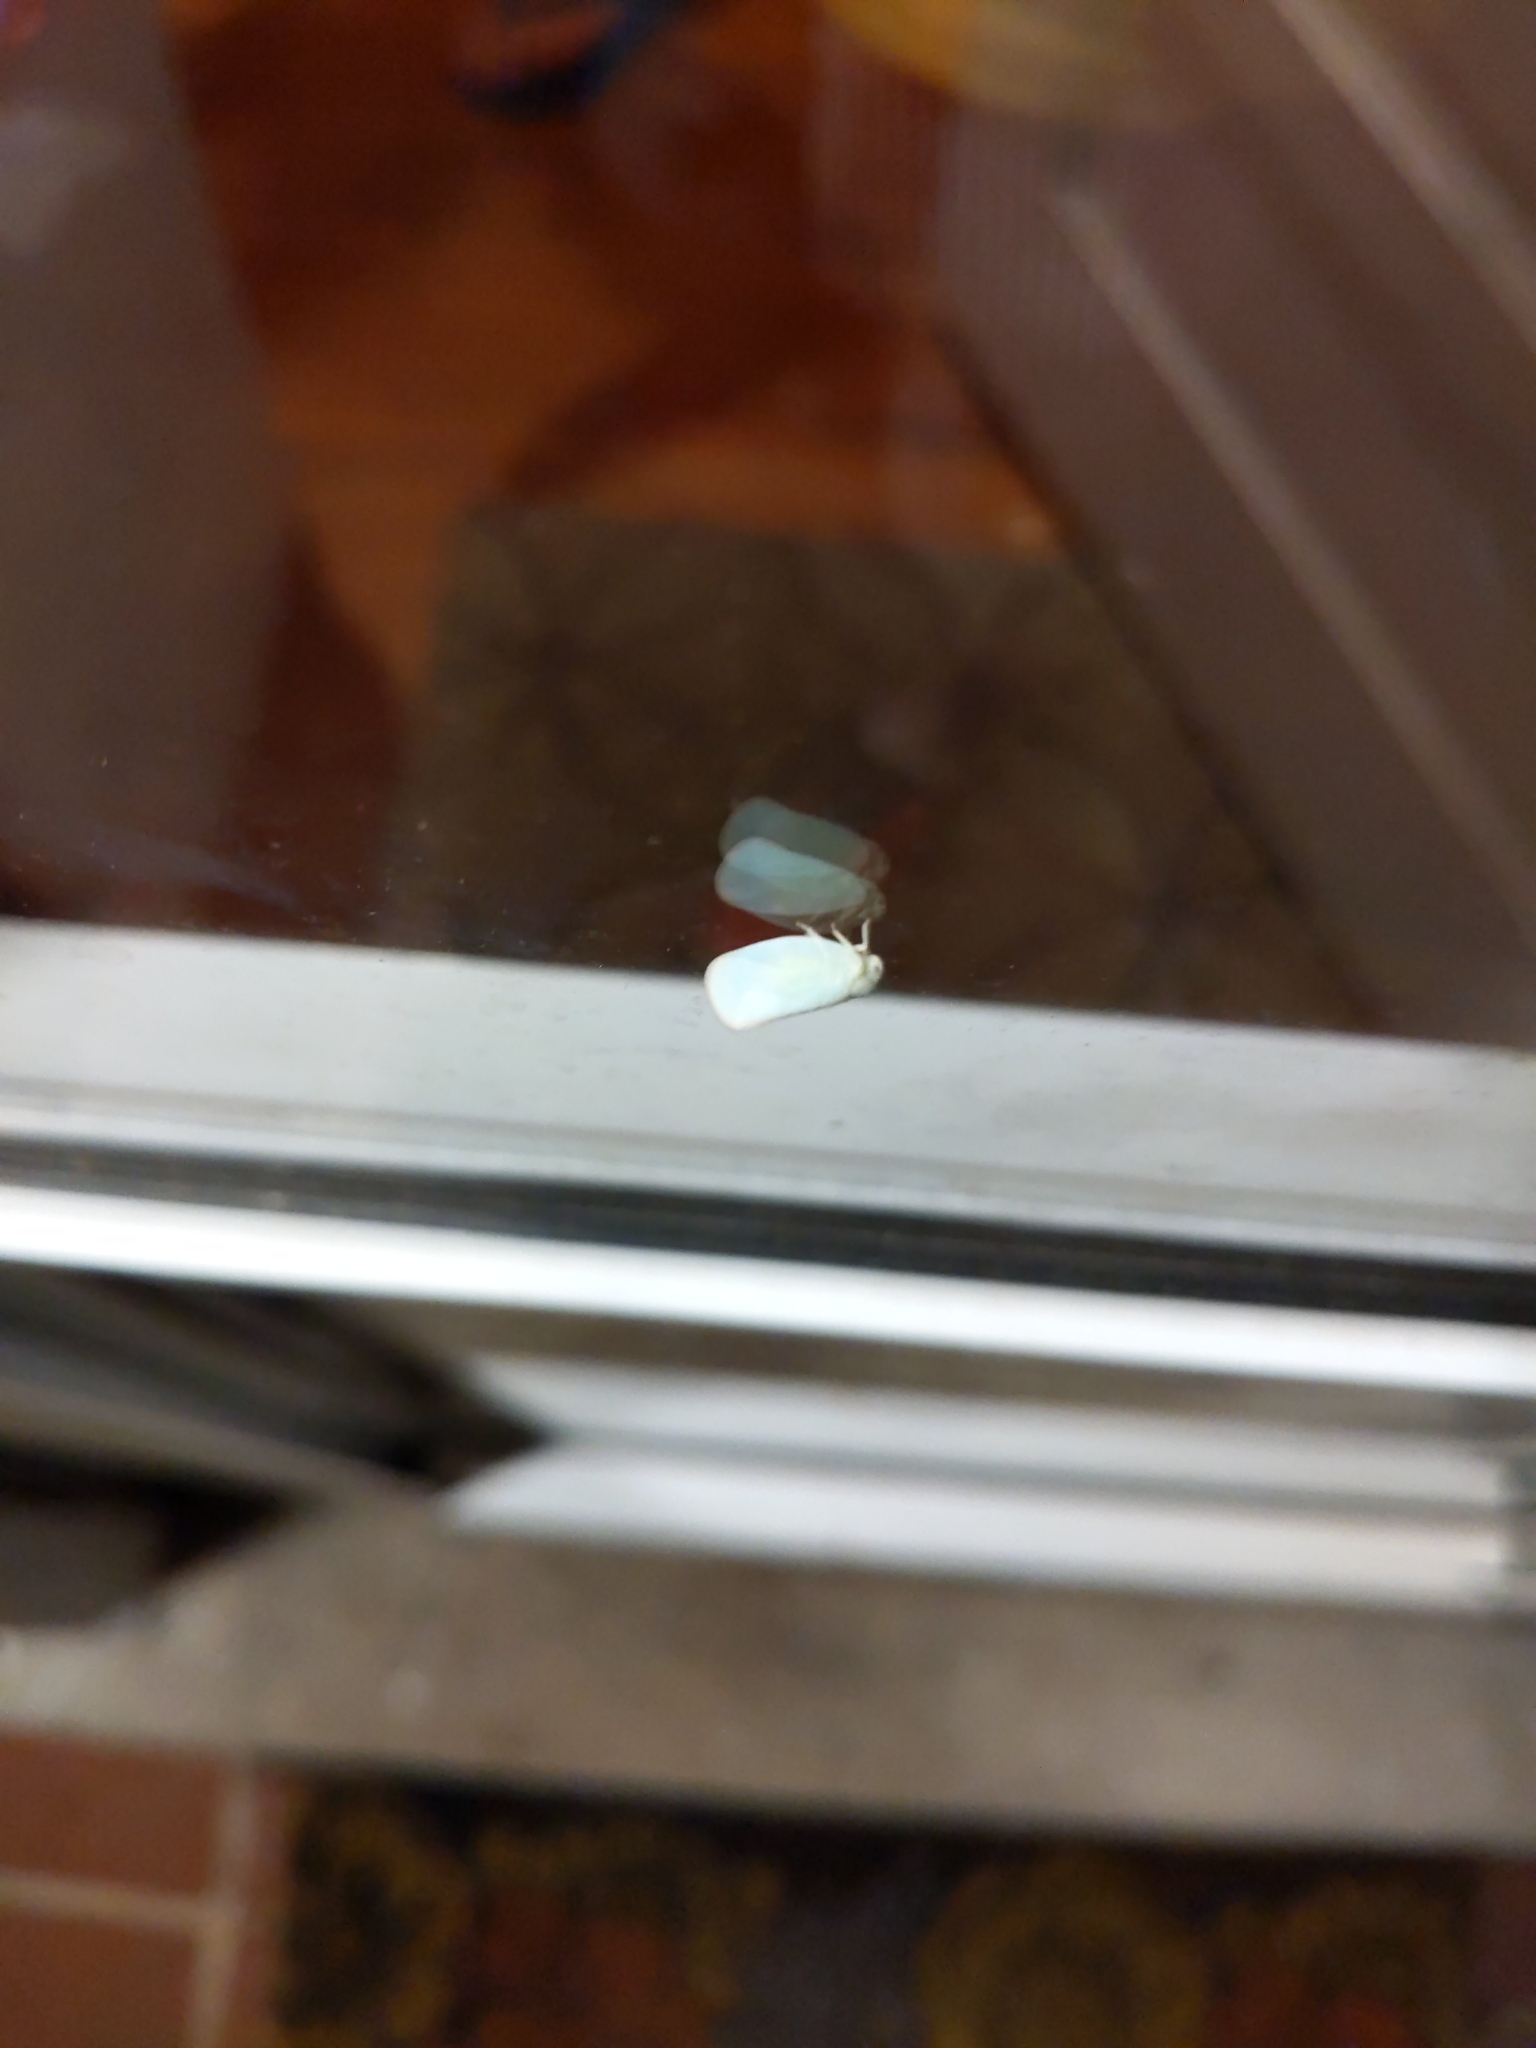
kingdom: Animalia
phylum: Arthropoda
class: Insecta
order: Hemiptera
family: Flatidae
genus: Ormenoides
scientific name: Ormenoides venusta
